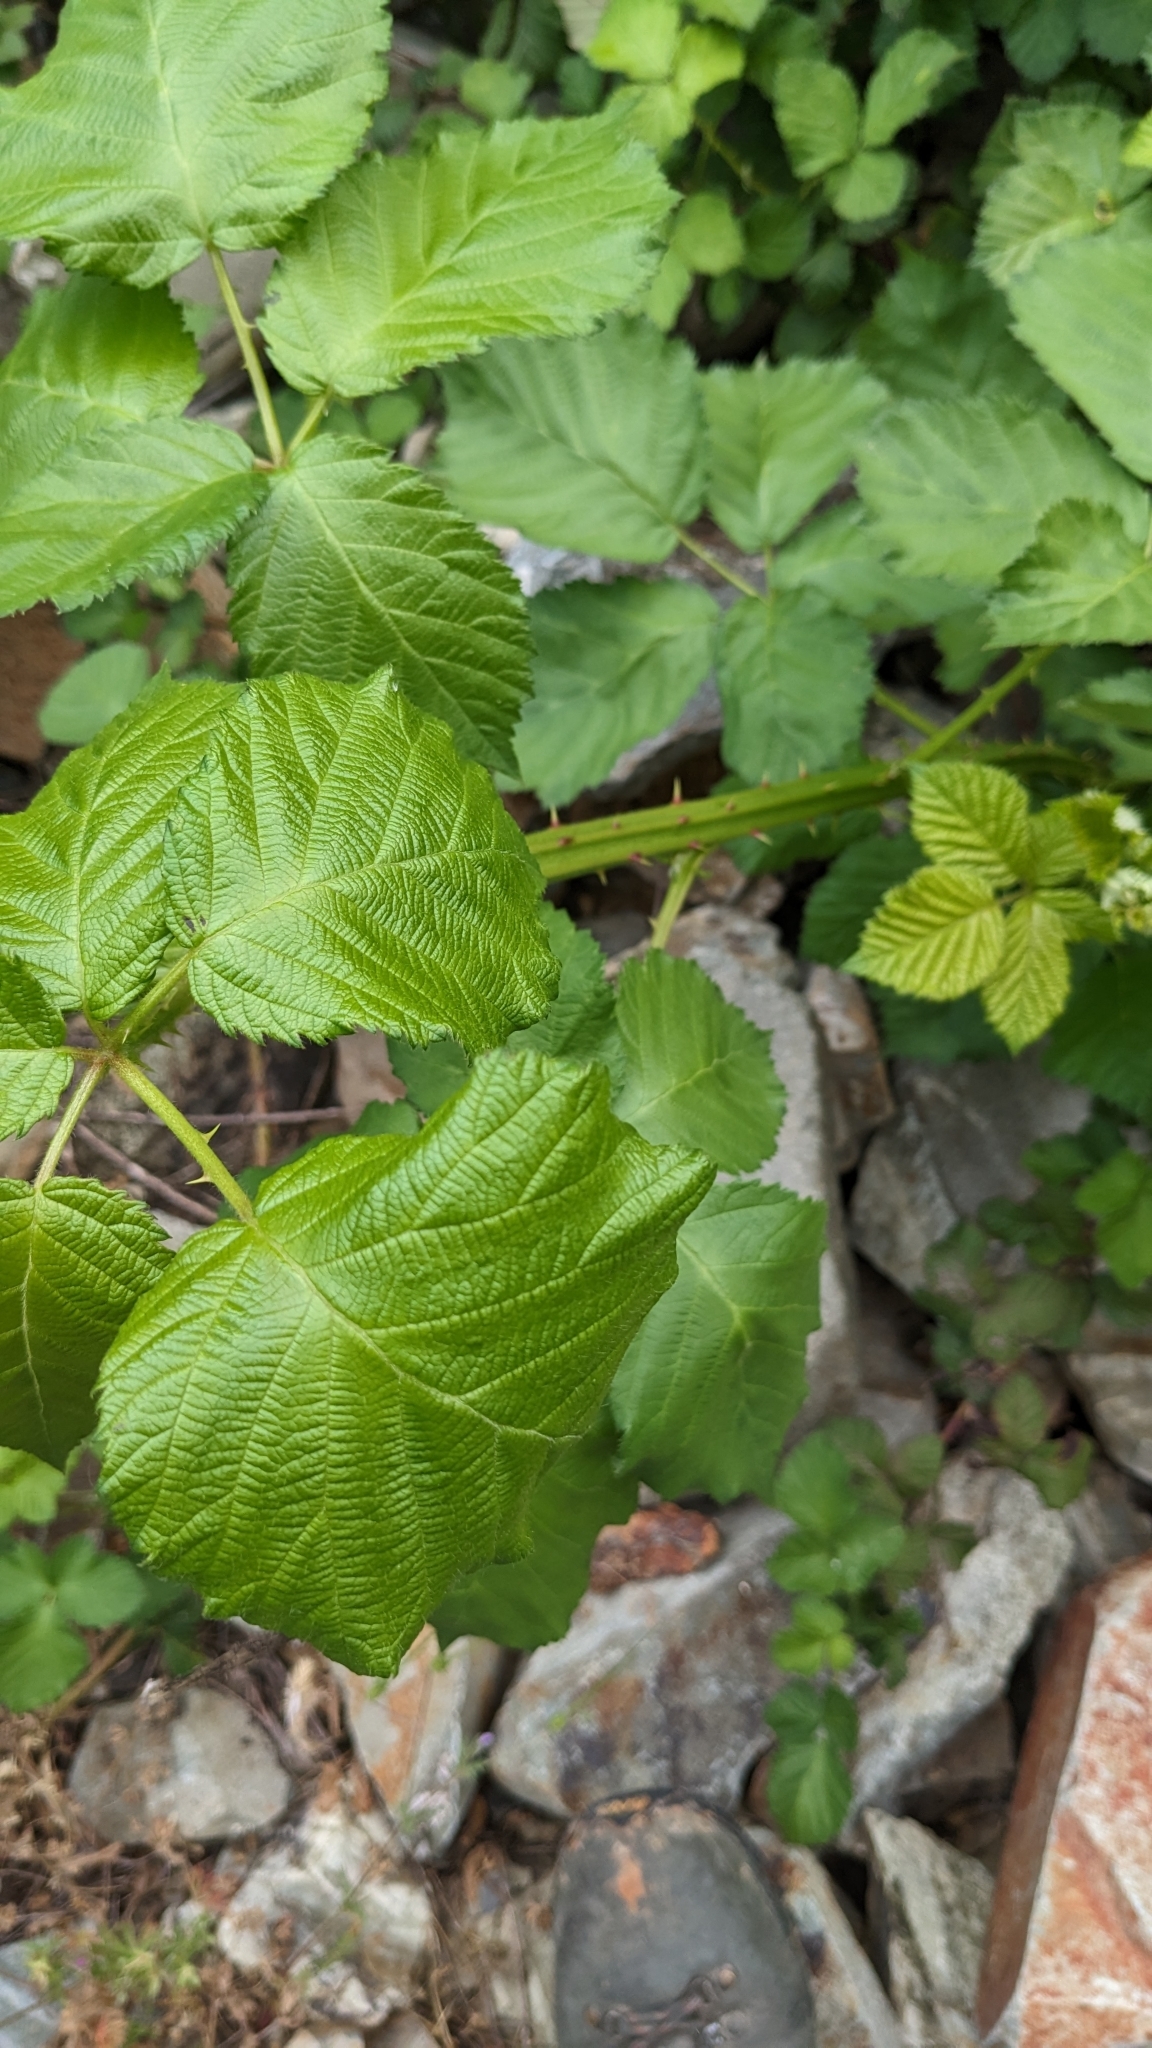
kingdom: Plantae
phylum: Tracheophyta
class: Magnoliopsida
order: Rosales
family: Rosaceae
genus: Rubus
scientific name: Rubus armeniacus
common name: Himalayan blackberry
